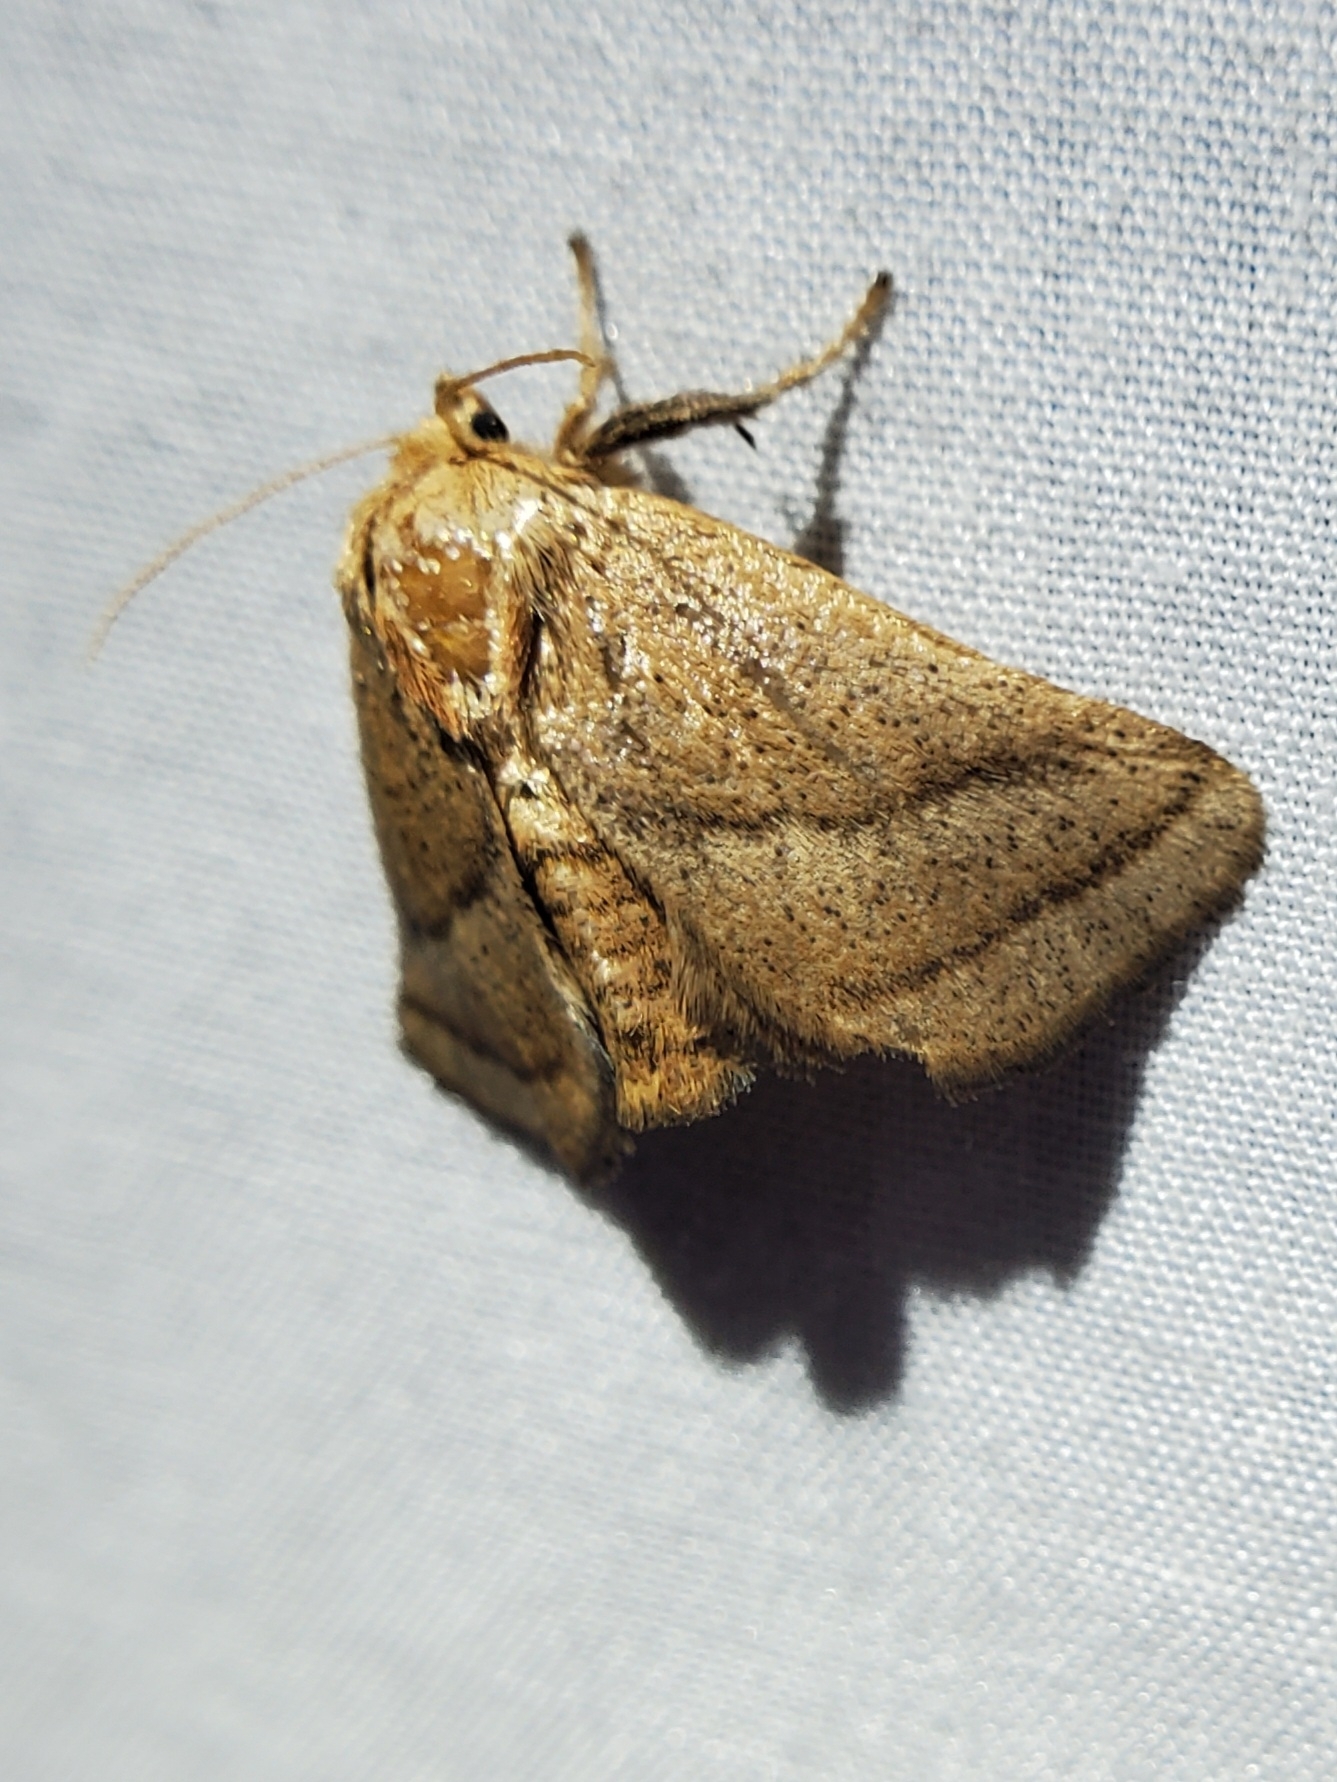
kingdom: Animalia
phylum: Arthropoda
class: Insecta
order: Lepidoptera
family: Limacodidae
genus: Natada
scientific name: Natada nasoni
